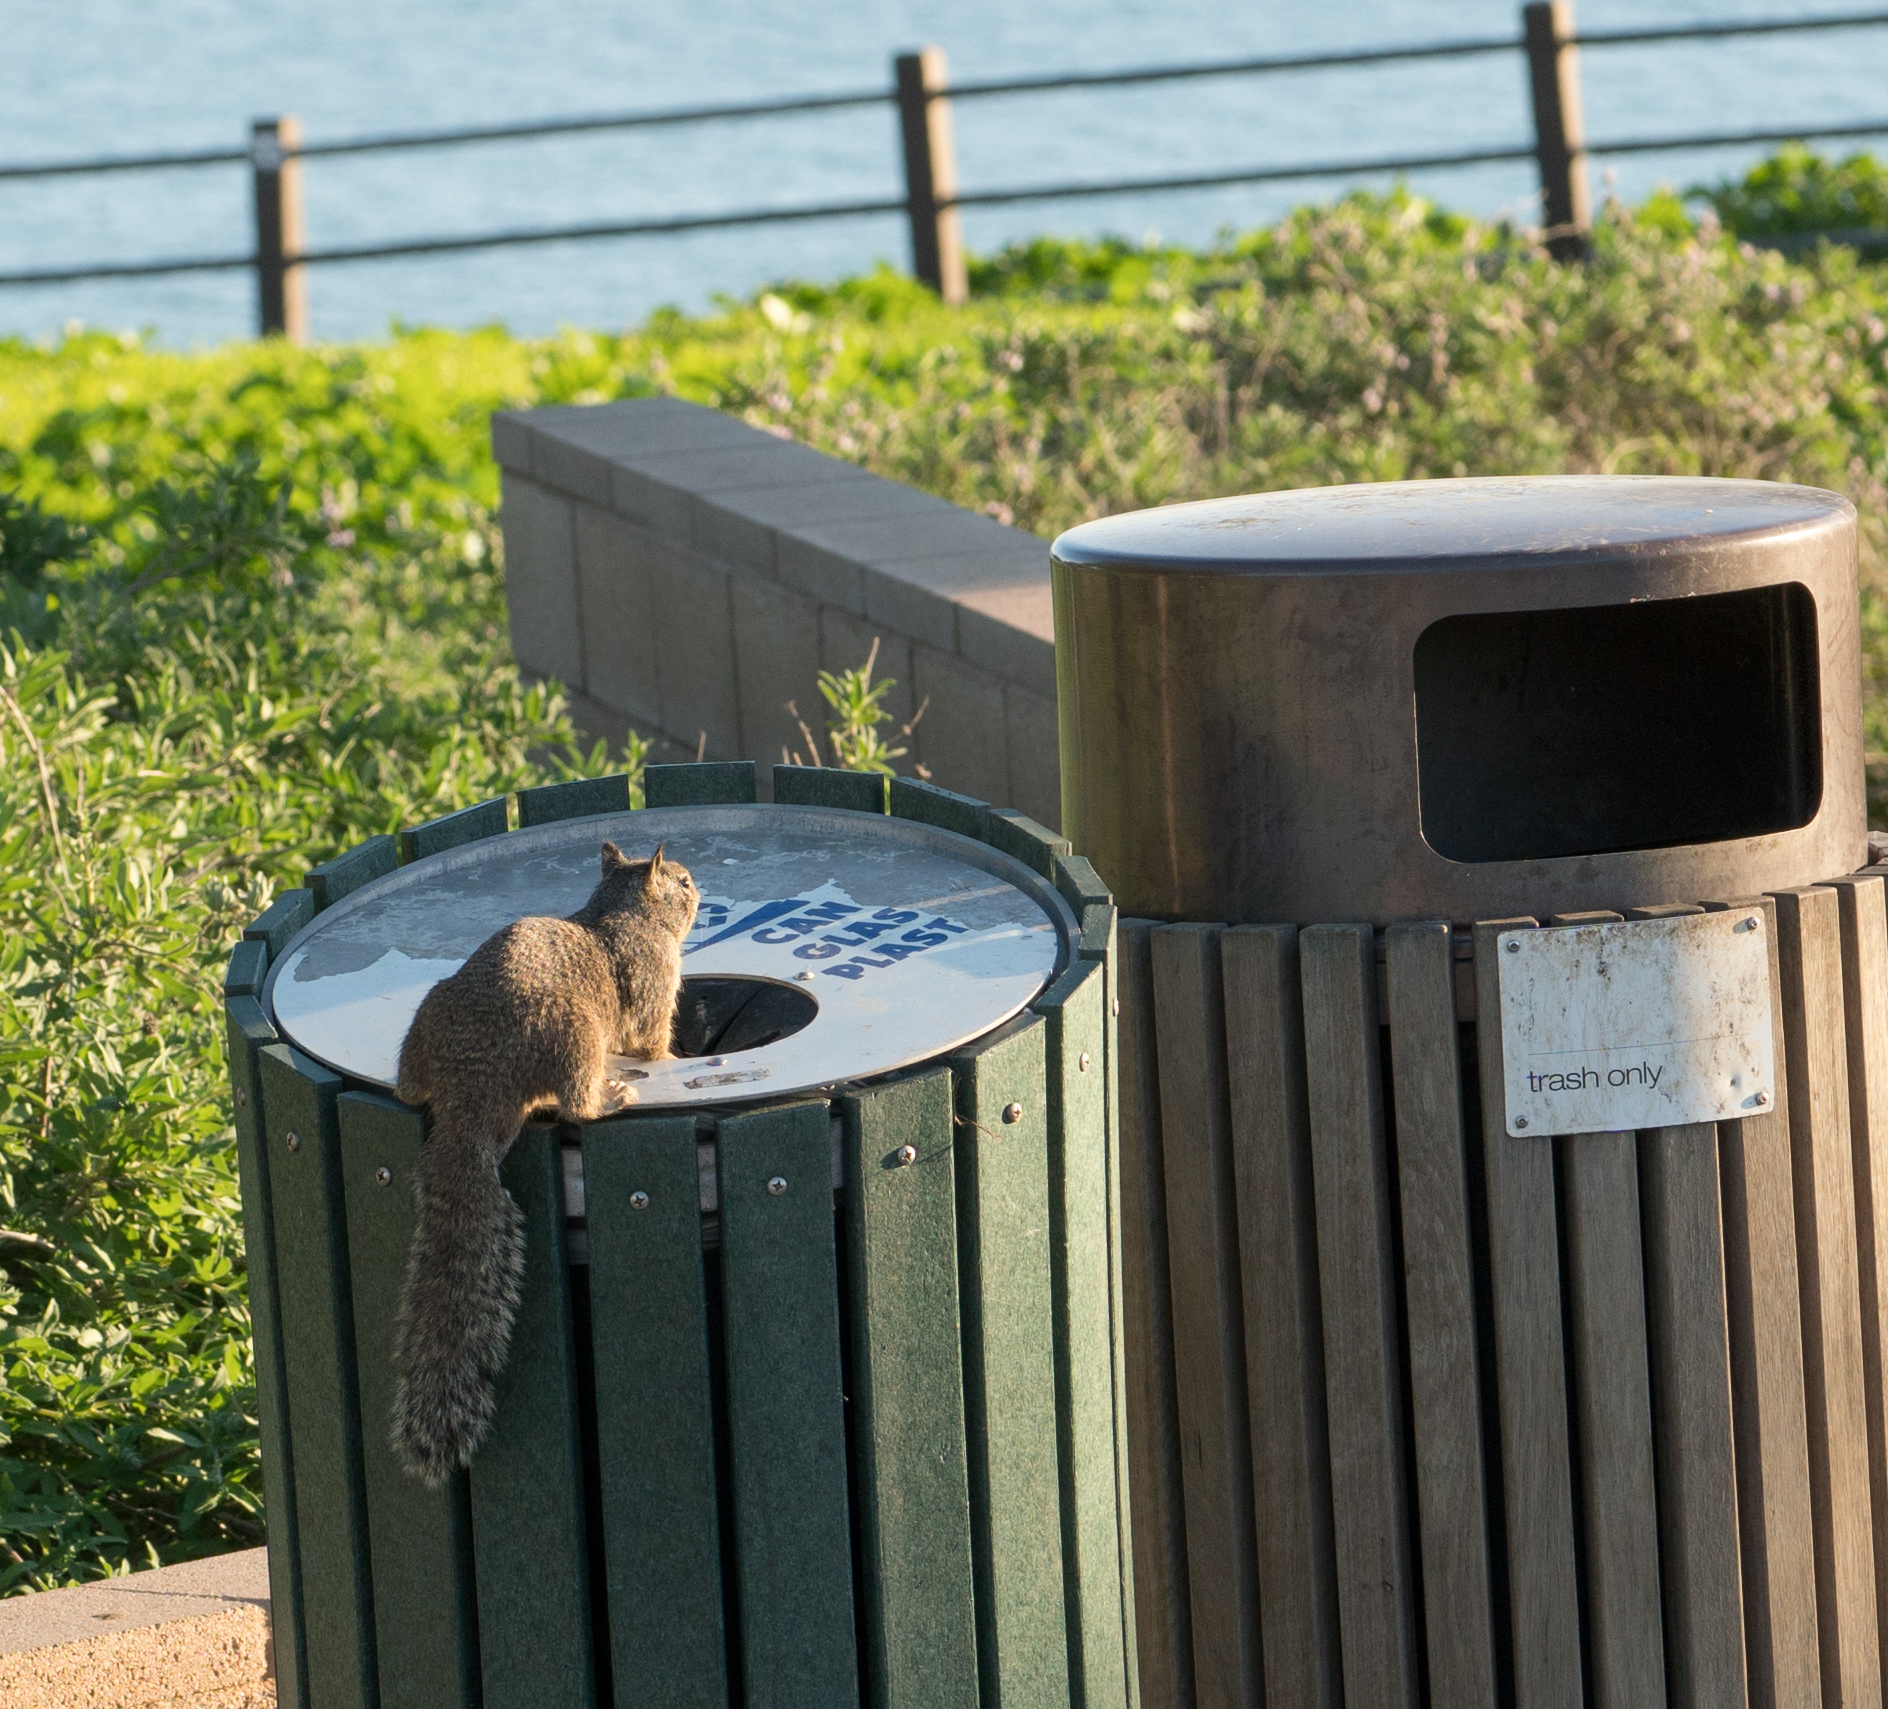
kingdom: Animalia
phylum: Chordata
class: Mammalia
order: Rodentia
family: Sciuridae
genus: Otospermophilus
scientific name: Otospermophilus beecheyi
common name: California ground squirrel
